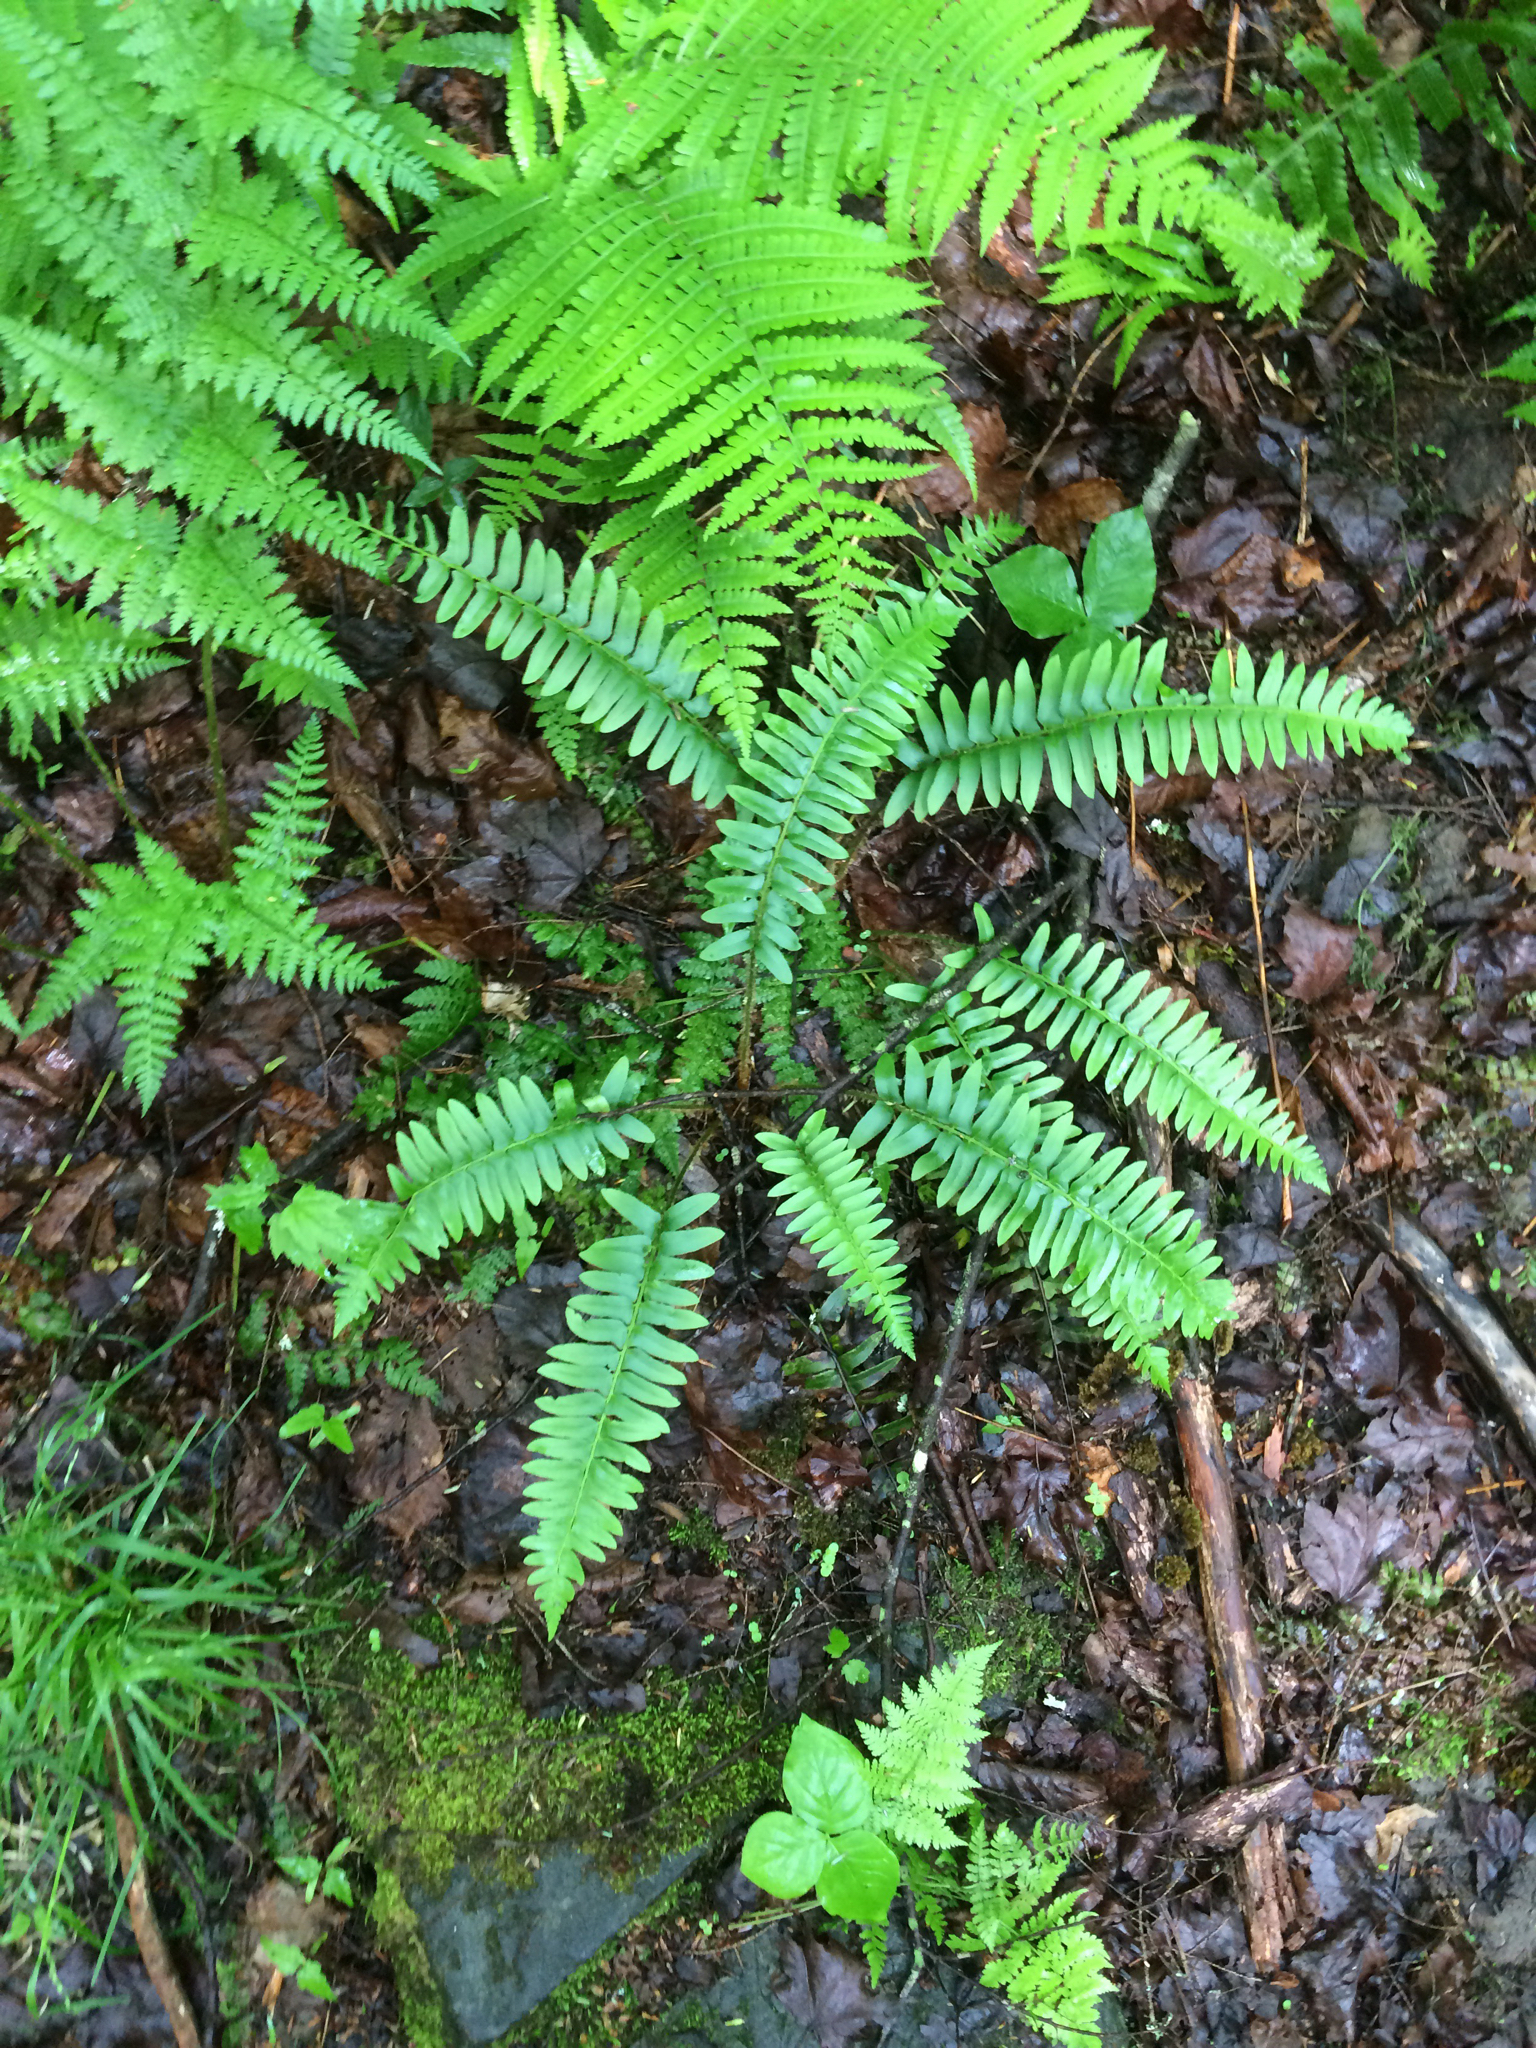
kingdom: Plantae
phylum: Tracheophyta
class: Polypodiopsida
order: Polypodiales
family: Dryopteridaceae
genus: Polystichum
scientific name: Polystichum acrostichoides
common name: Christmas fern
